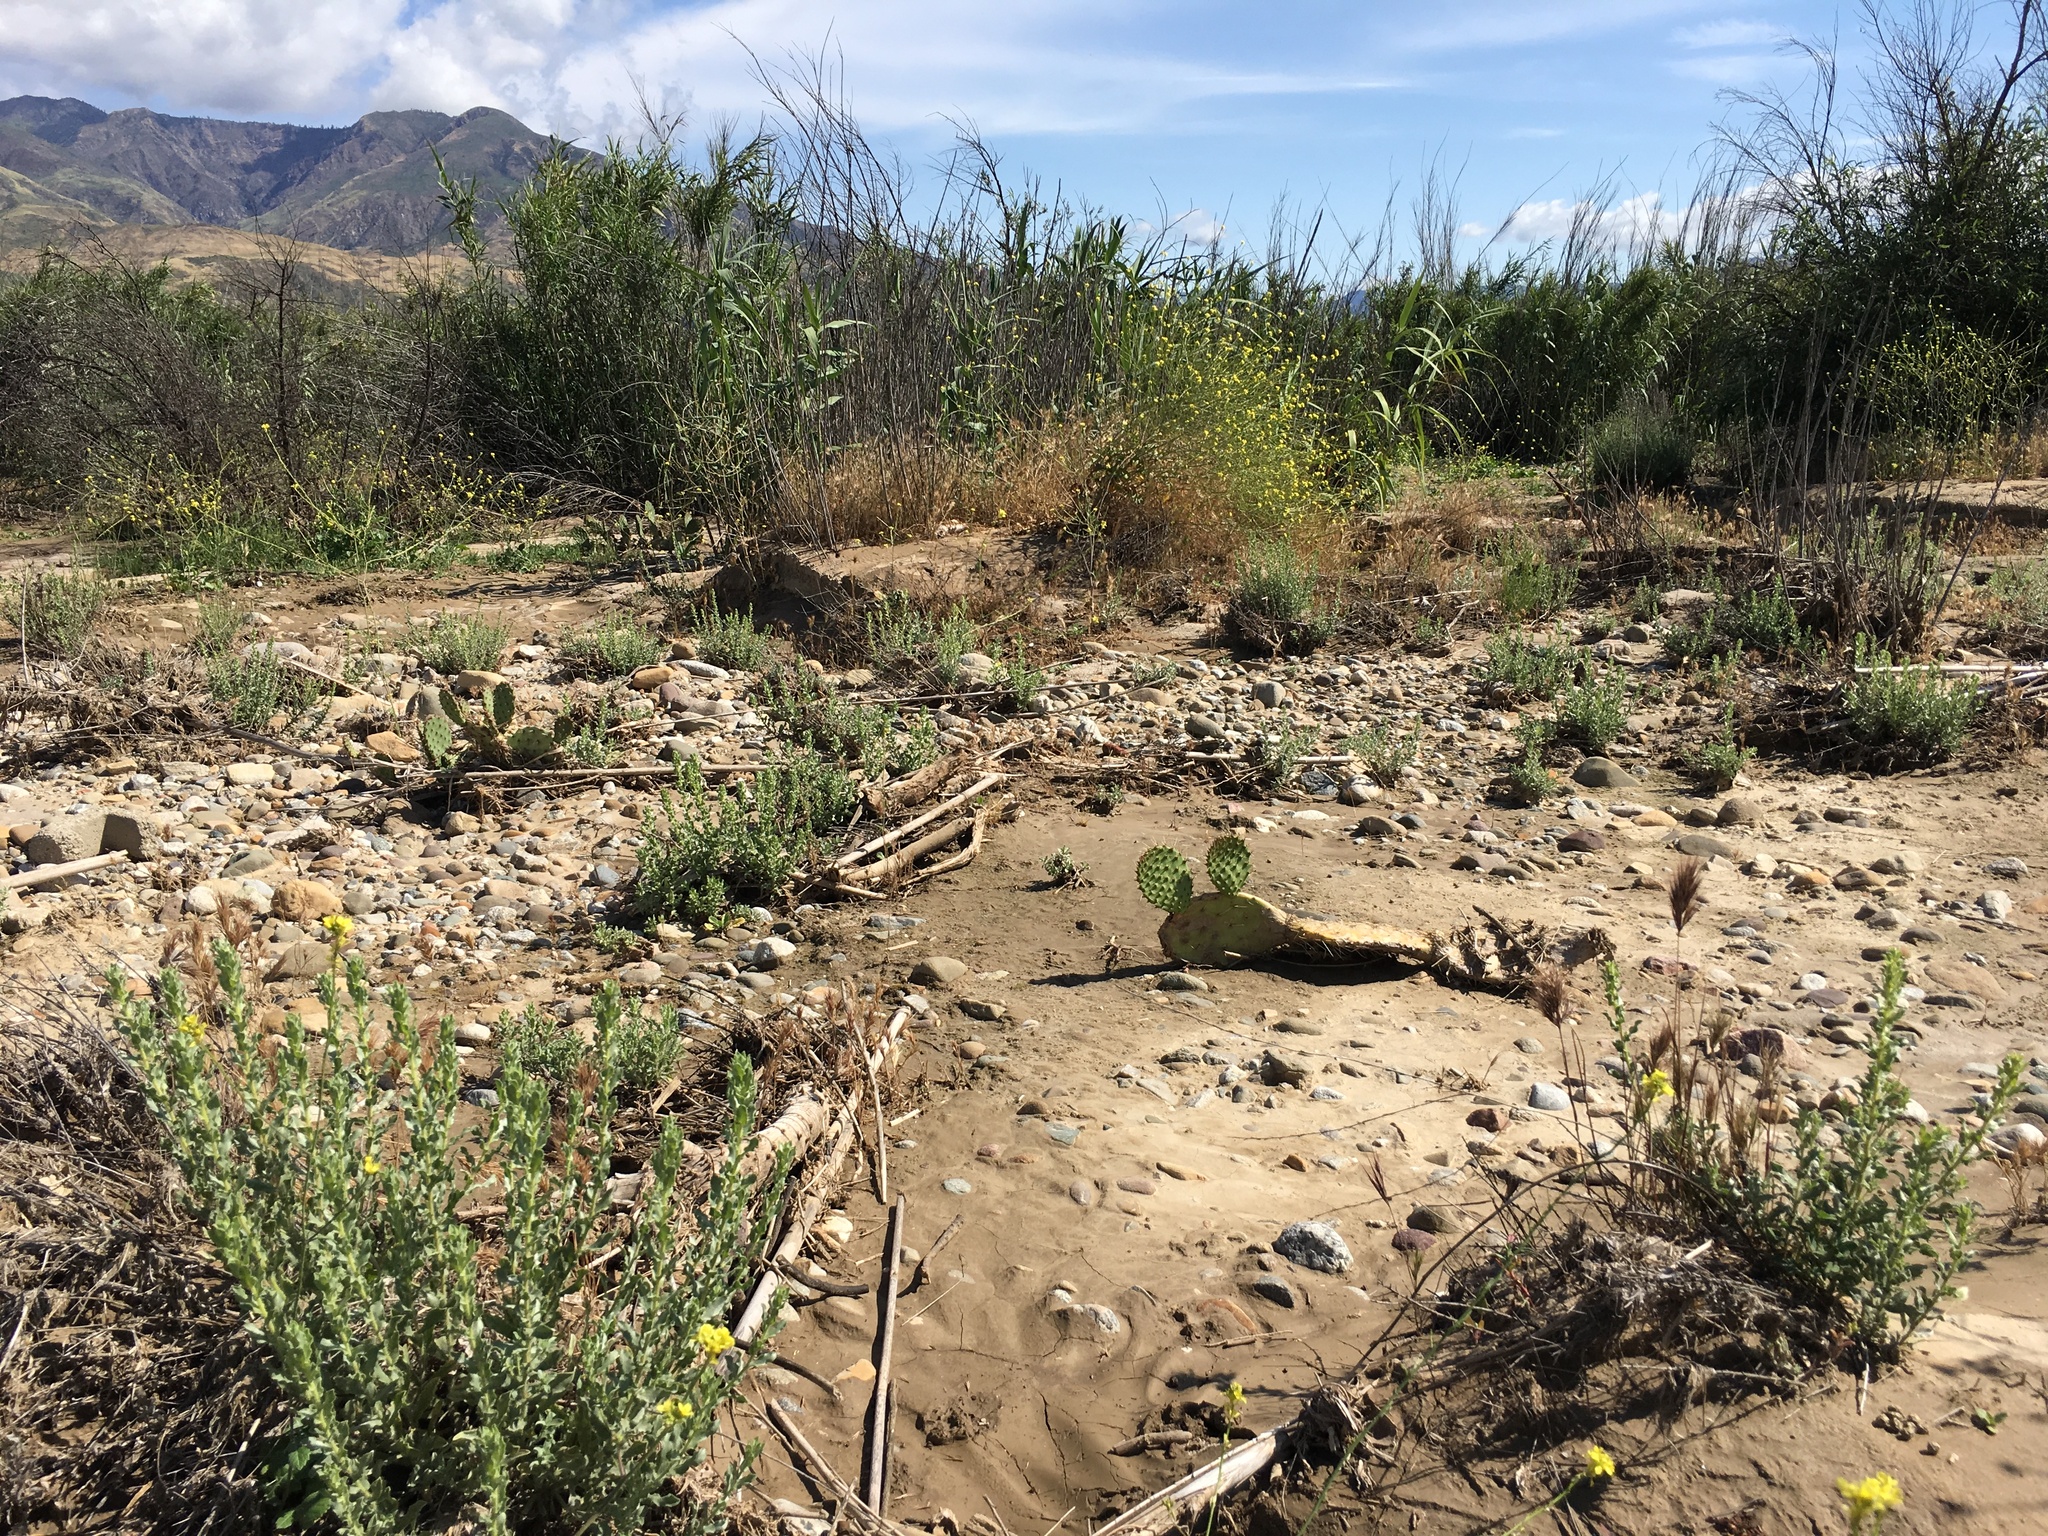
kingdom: Plantae
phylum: Tracheophyta
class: Liliopsida
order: Poales
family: Poaceae
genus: Arundo
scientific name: Arundo donax
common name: Giant reed
